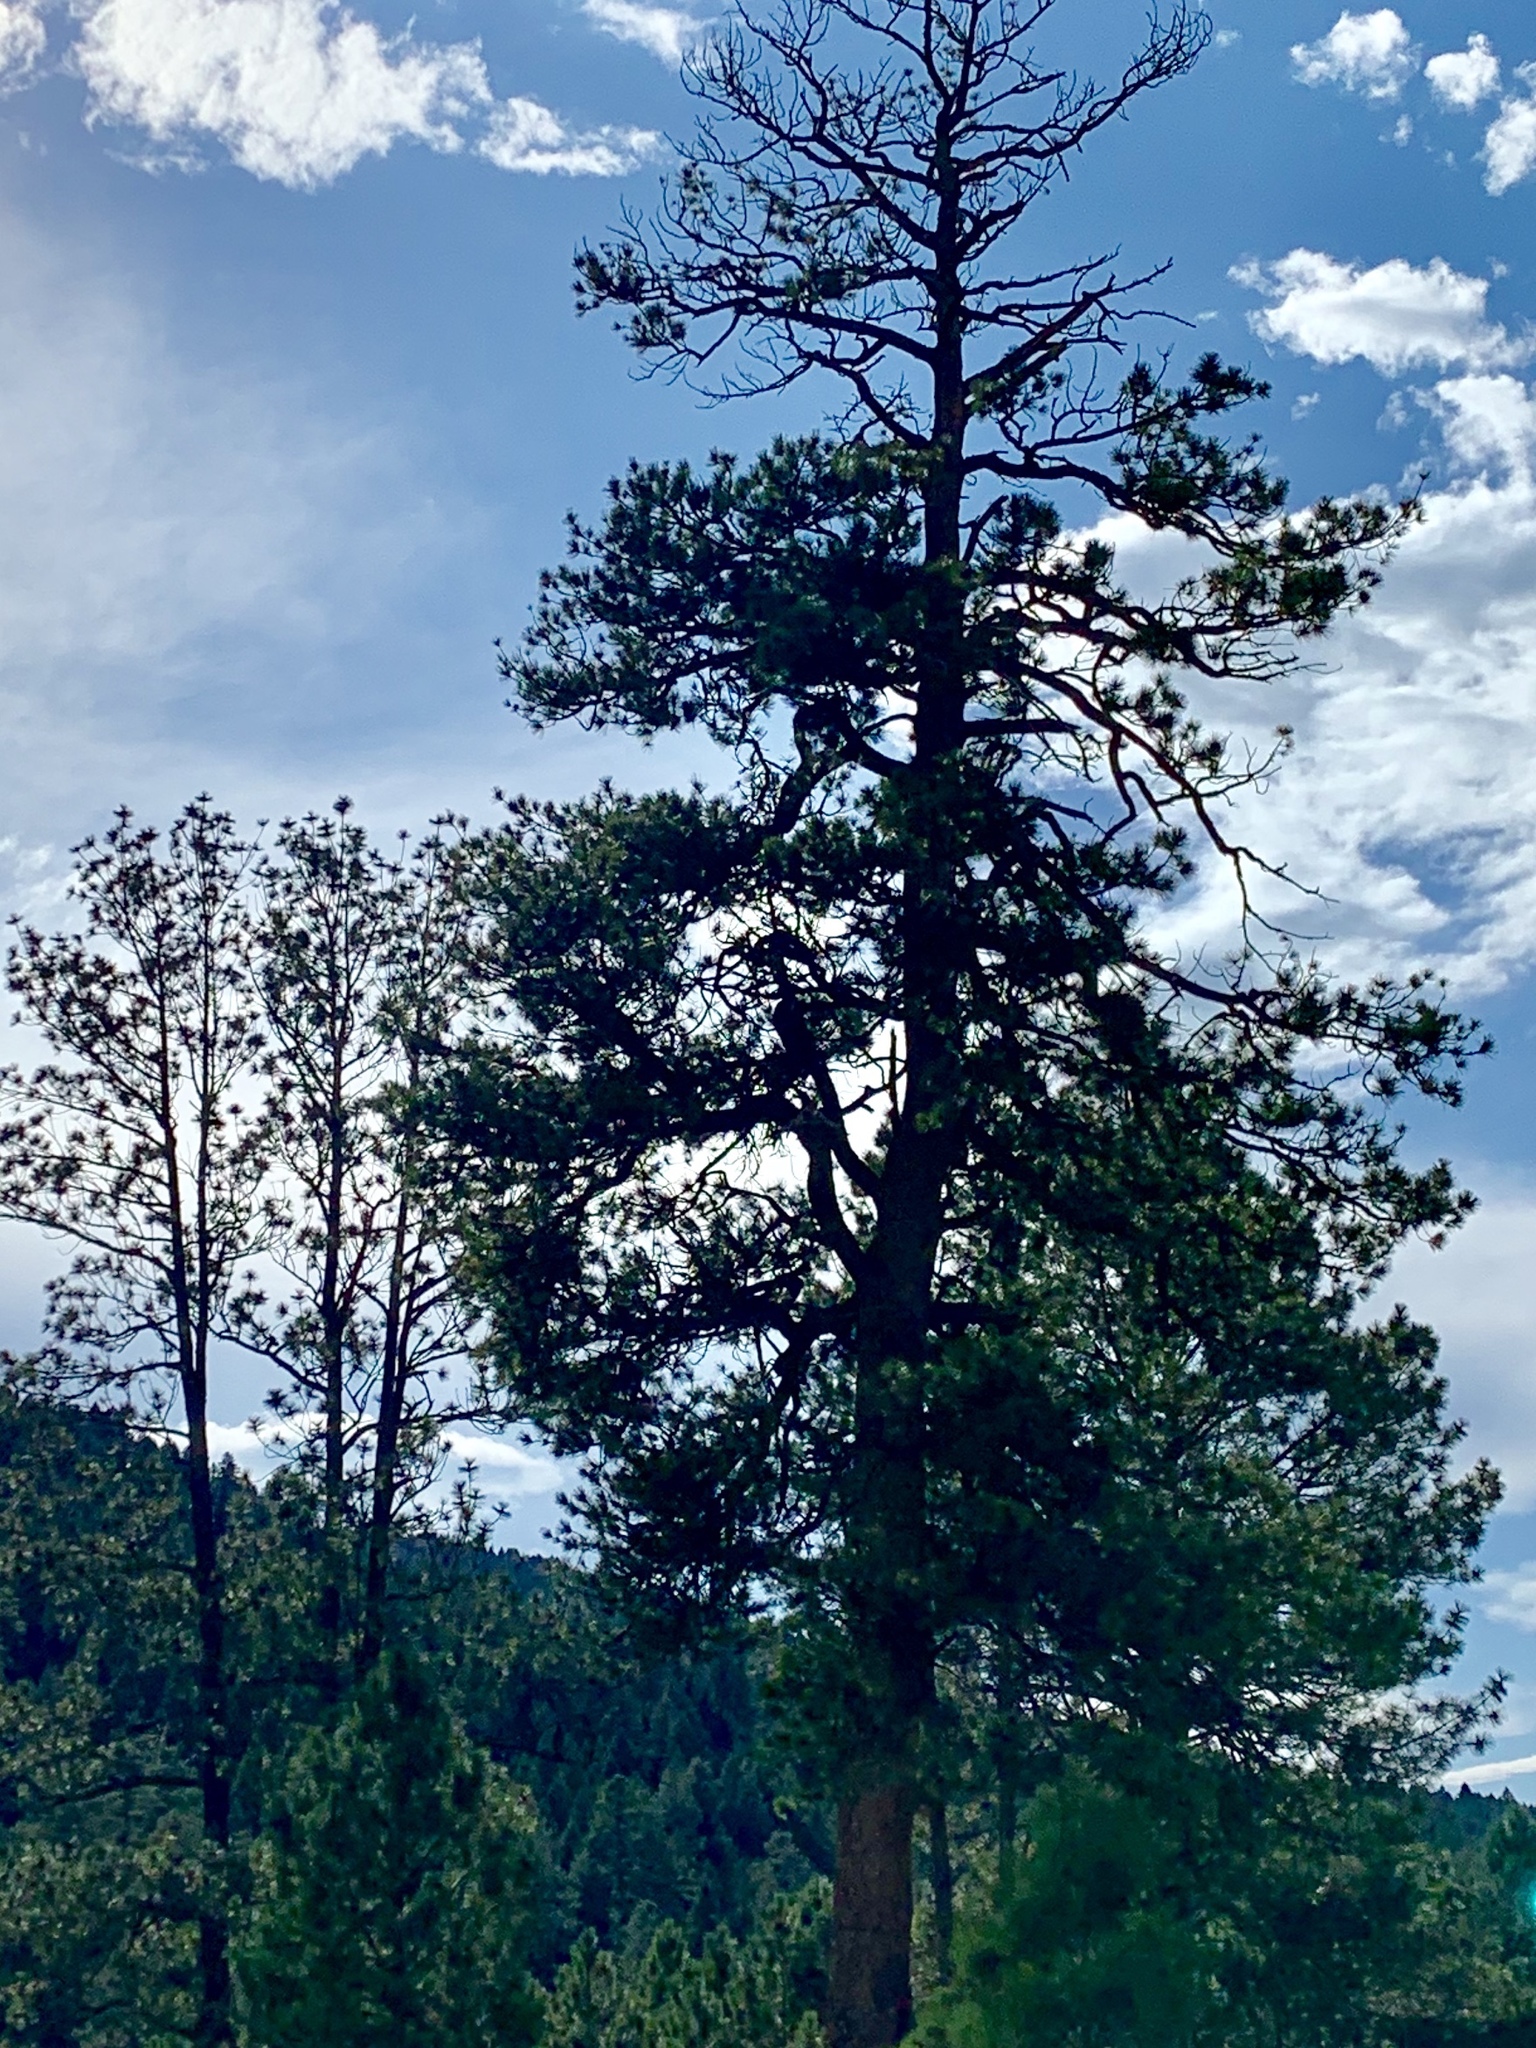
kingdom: Plantae
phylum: Tracheophyta
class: Pinopsida
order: Pinales
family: Pinaceae
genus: Pinus
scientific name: Pinus ponderosa
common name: Western yellow-pine
